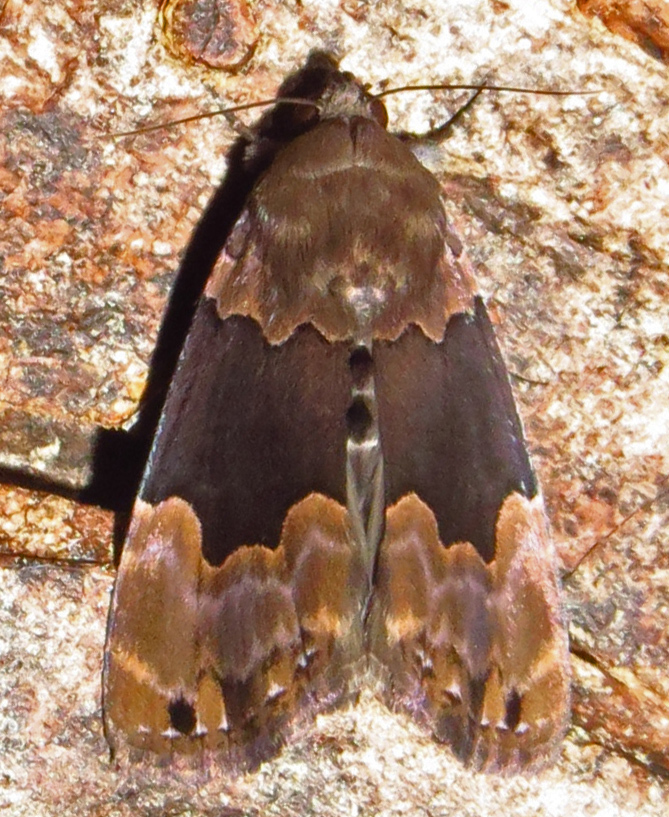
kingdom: Animalia
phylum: Arthropoda
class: Insecta
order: Lepidoptera
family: Erebidae
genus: Dinumma
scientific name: Dinumma deponens
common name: Purplish moth
